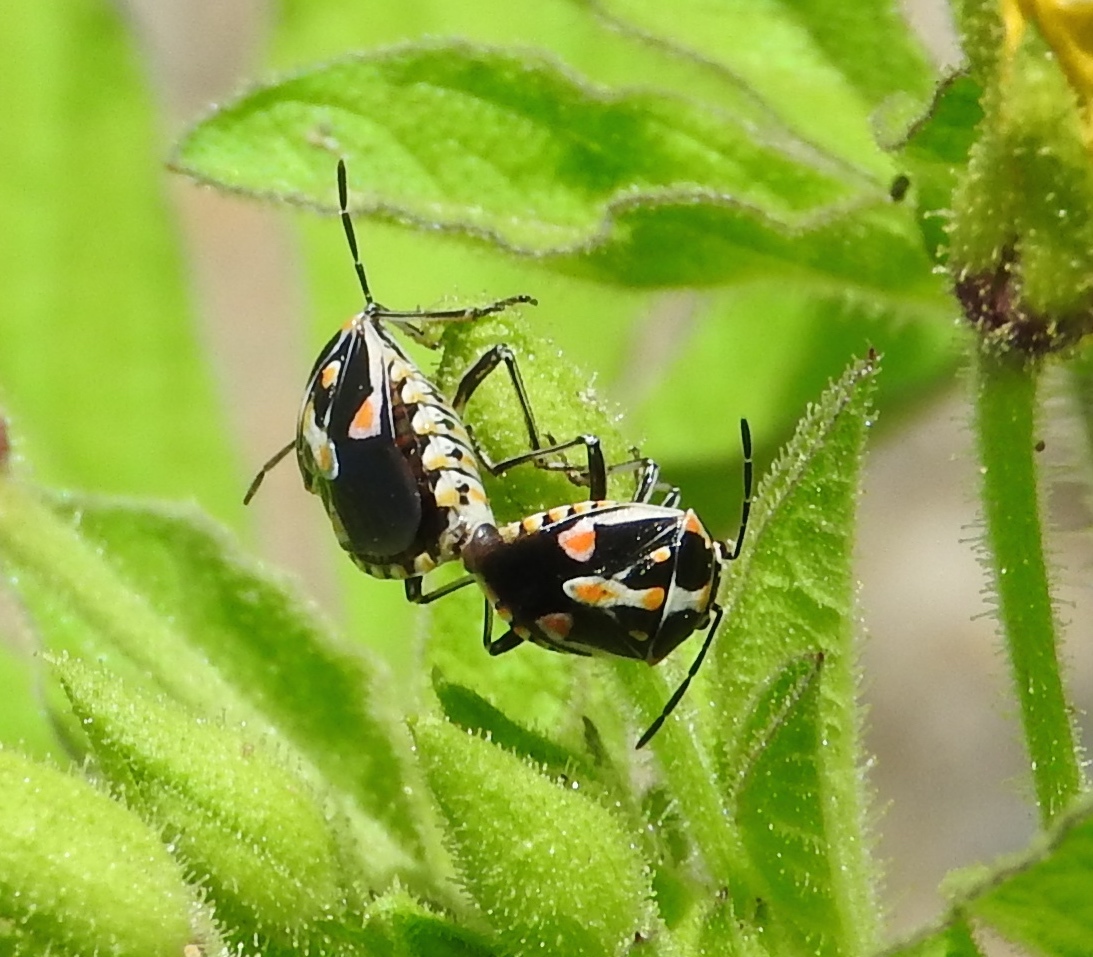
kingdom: Animalia
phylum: Arthropoda
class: Insecta
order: Hemiptera
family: Pentatomidae
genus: Bagrada
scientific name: Bagrada hilaris
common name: Bagrada bug
